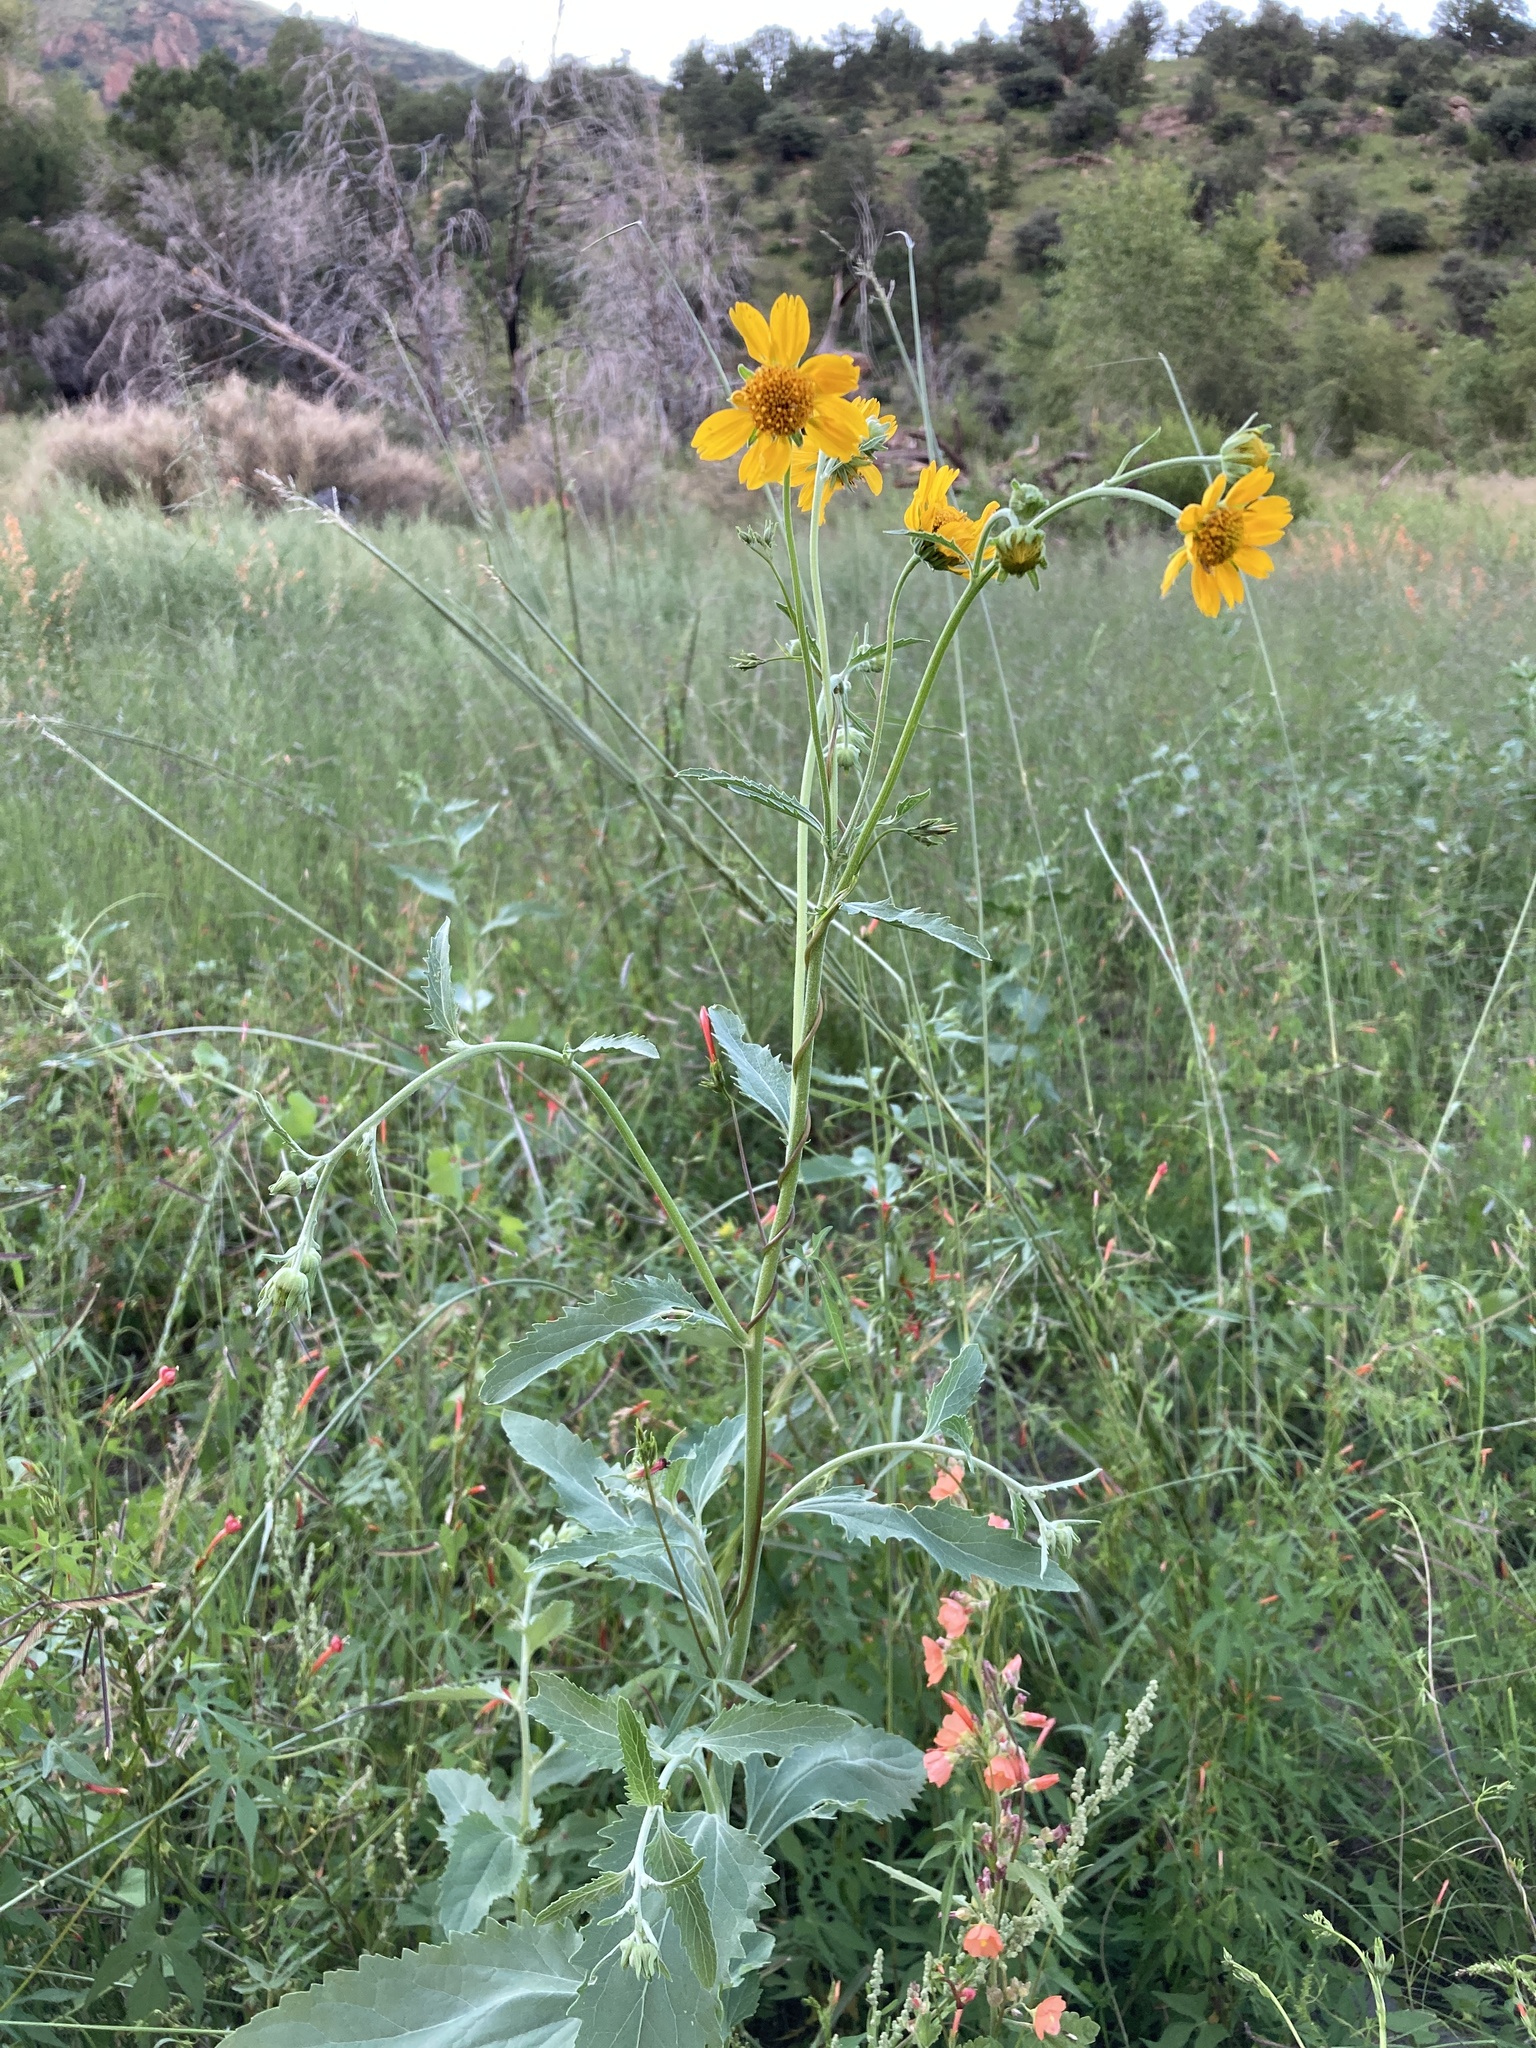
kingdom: Plantae
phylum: Tracheophyta
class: Magnoliopsida
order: Asterales
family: Asteraceae
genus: Verbesina
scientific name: Verbesina encelioides
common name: Golden crownbeard
